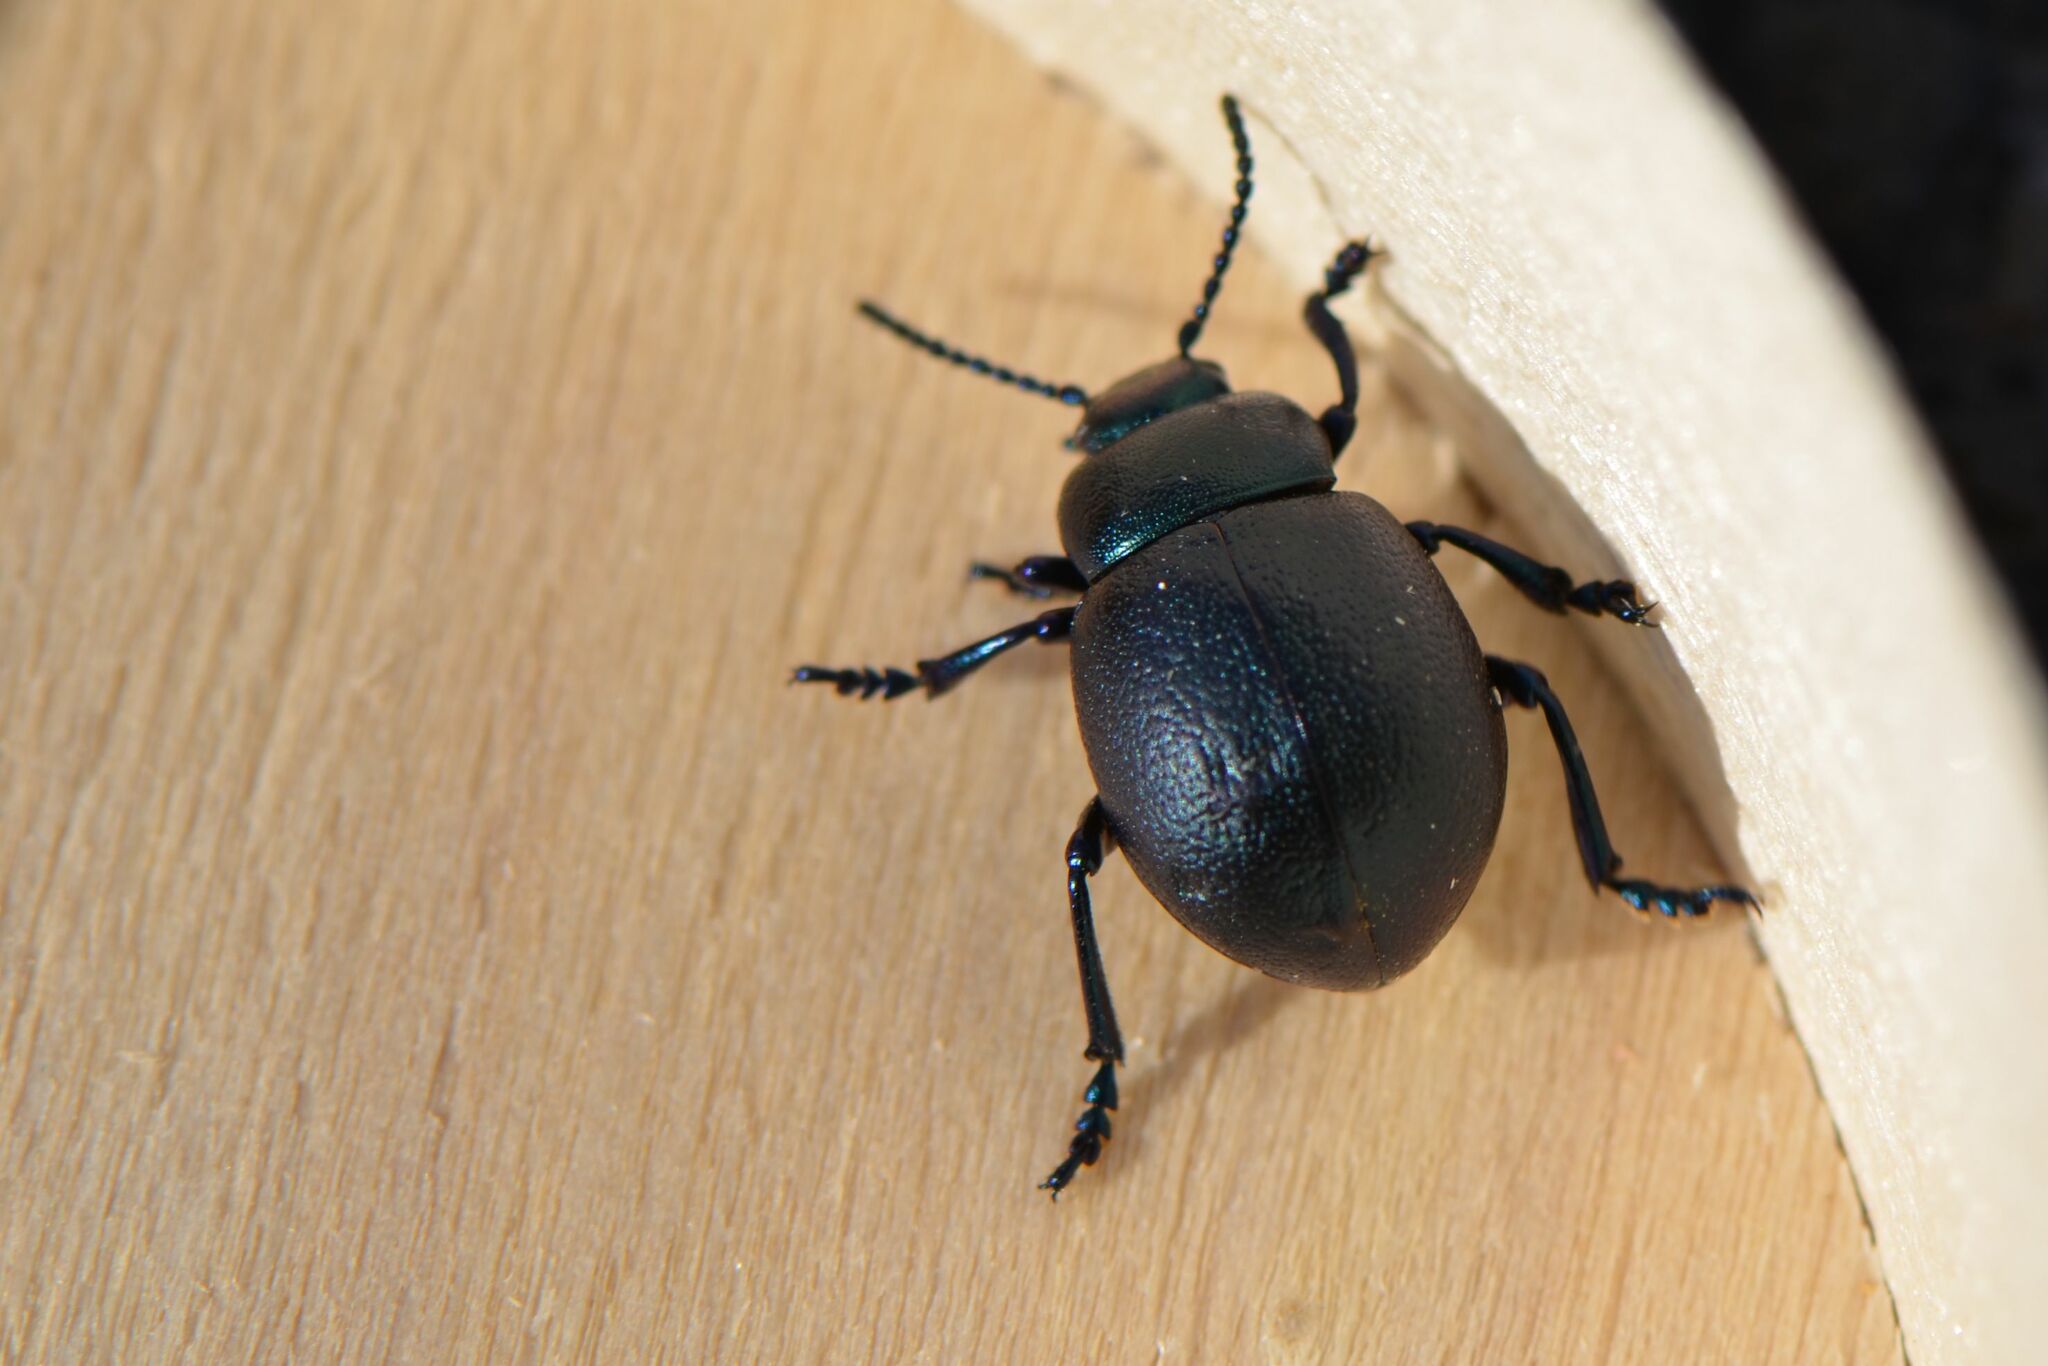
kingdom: Animalia
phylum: Arthropoda
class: Insecta
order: Coleoptera
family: Chrysomelidae
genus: Timarcha
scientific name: Timarcha goettingensis
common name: Small bloody-nosed beetle
